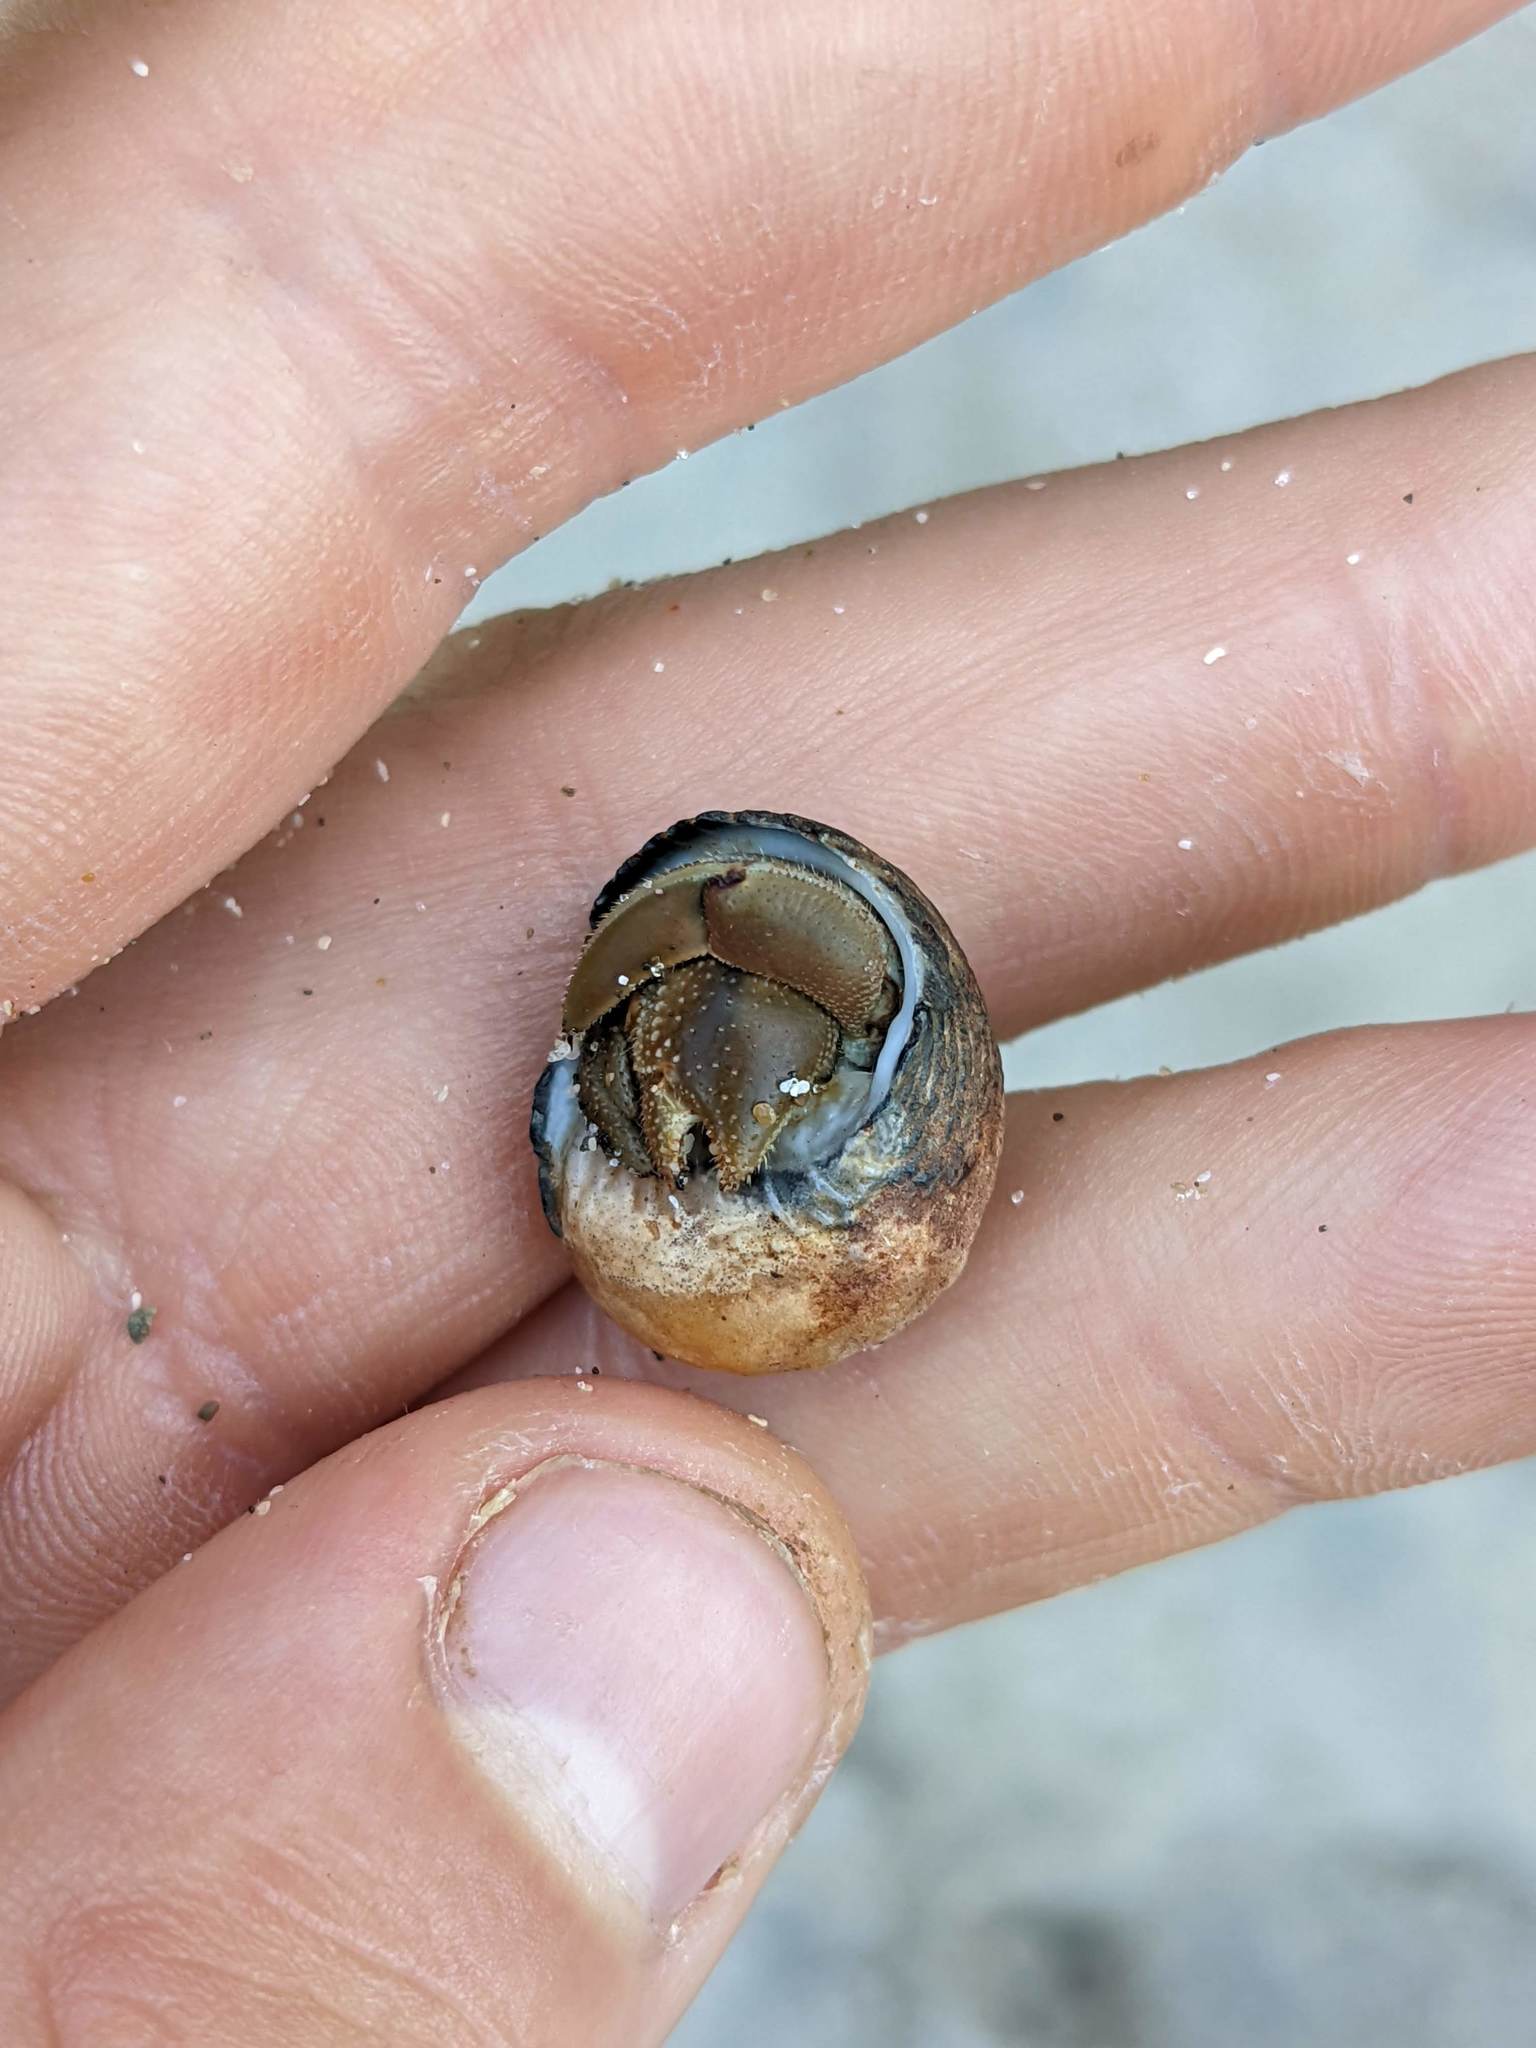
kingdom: Animalia
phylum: Arthropoda
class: Malacostraca
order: Decapoda
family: Coenobitidae
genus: Coenobita
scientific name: Coenobita compressus
